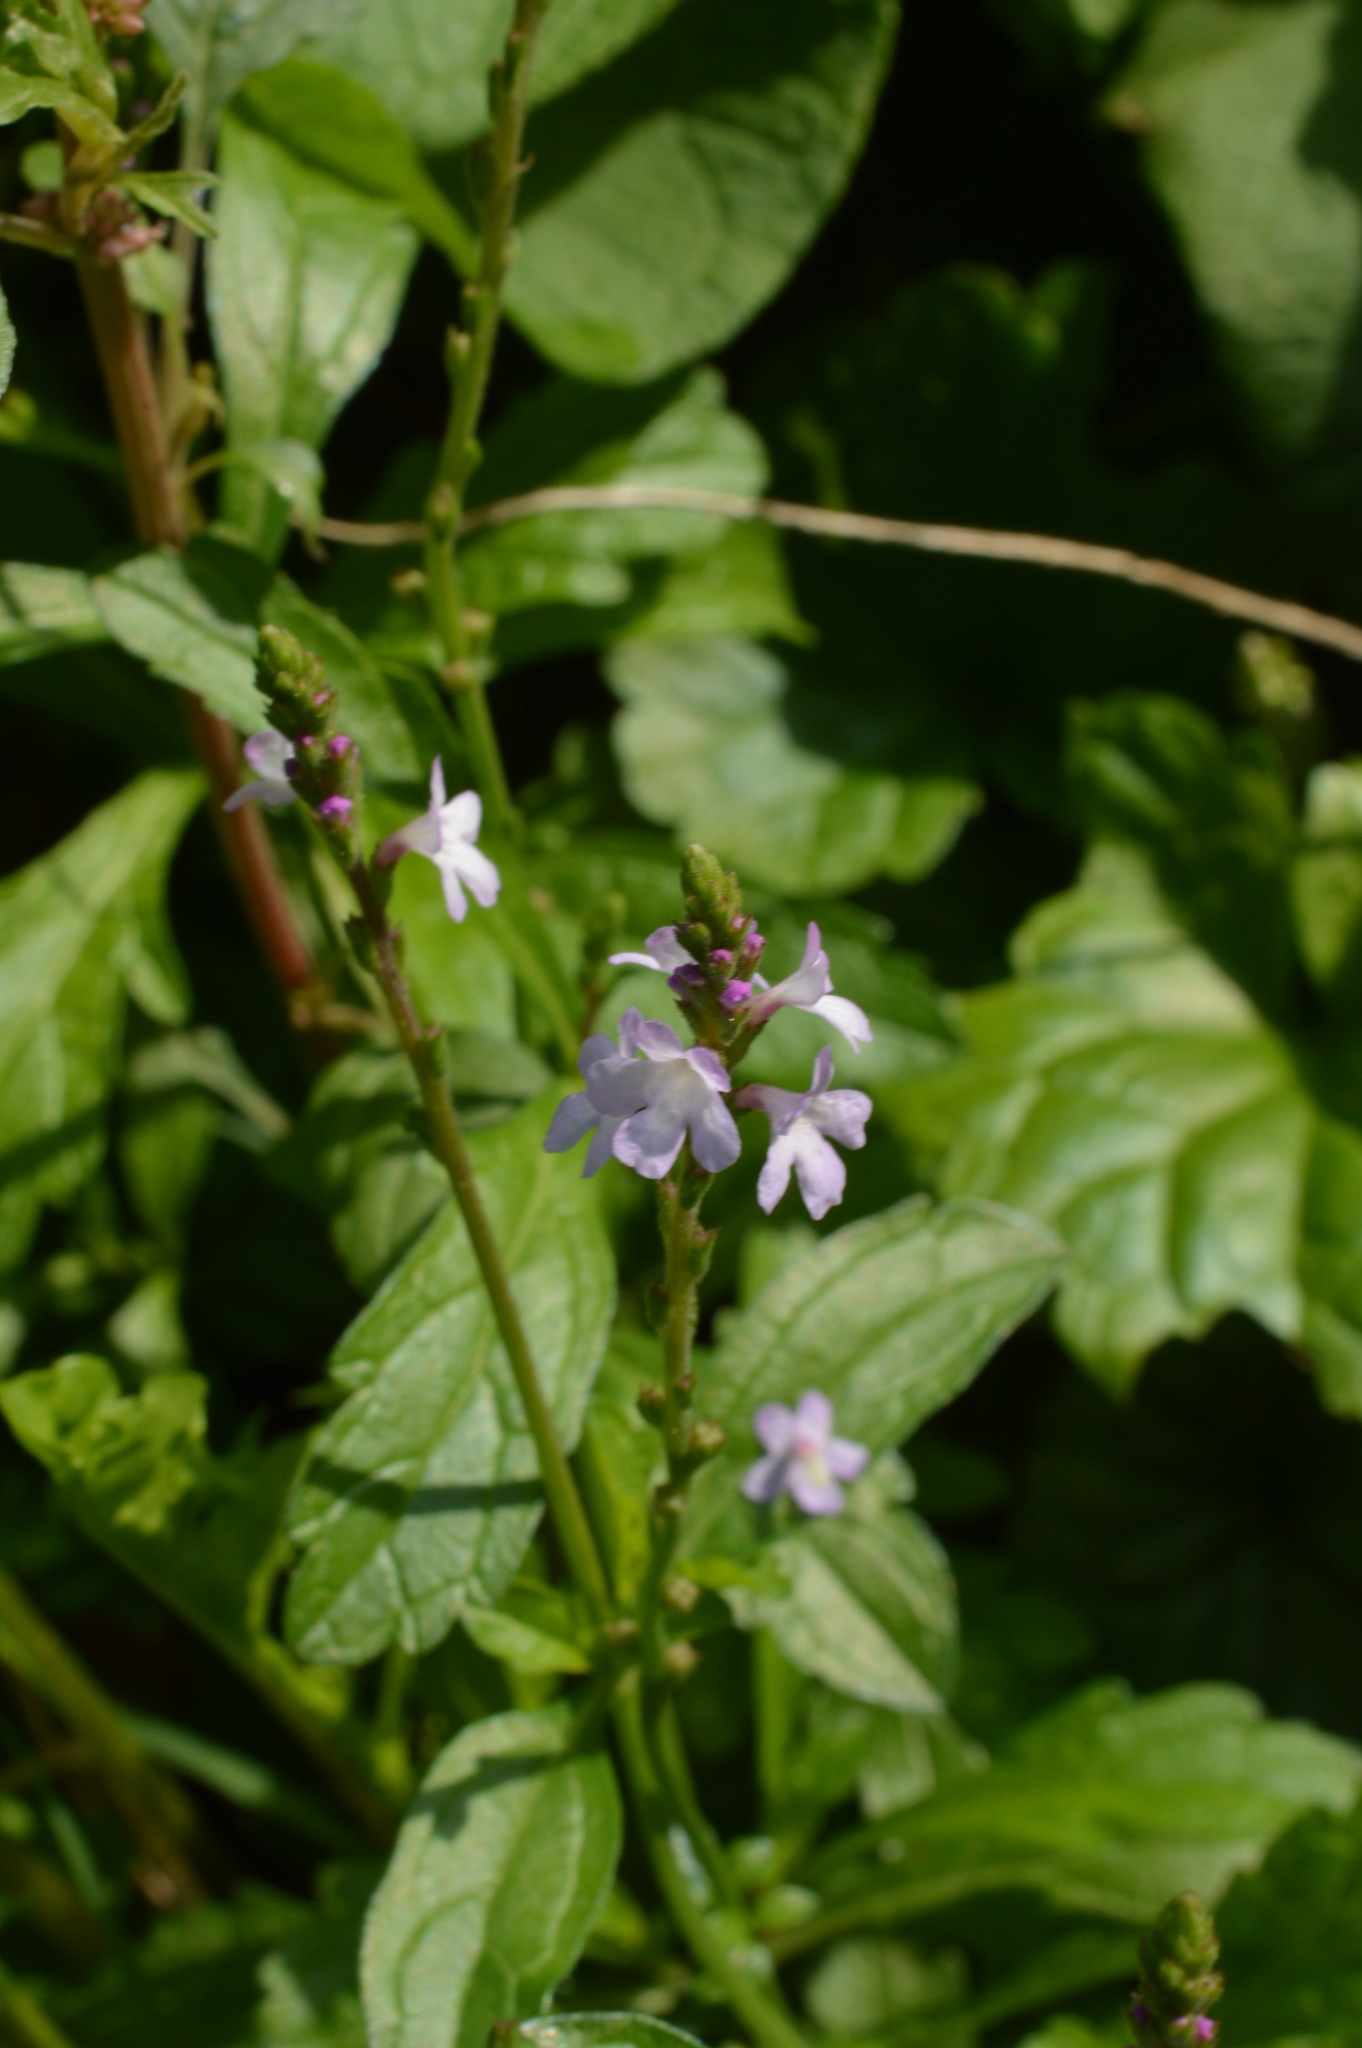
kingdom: Plantae
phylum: Tracheophyta
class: Magnoliopsida
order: Lamiales
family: Verbenaceae
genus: Verbena
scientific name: Verbena officinalis
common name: Vervain
